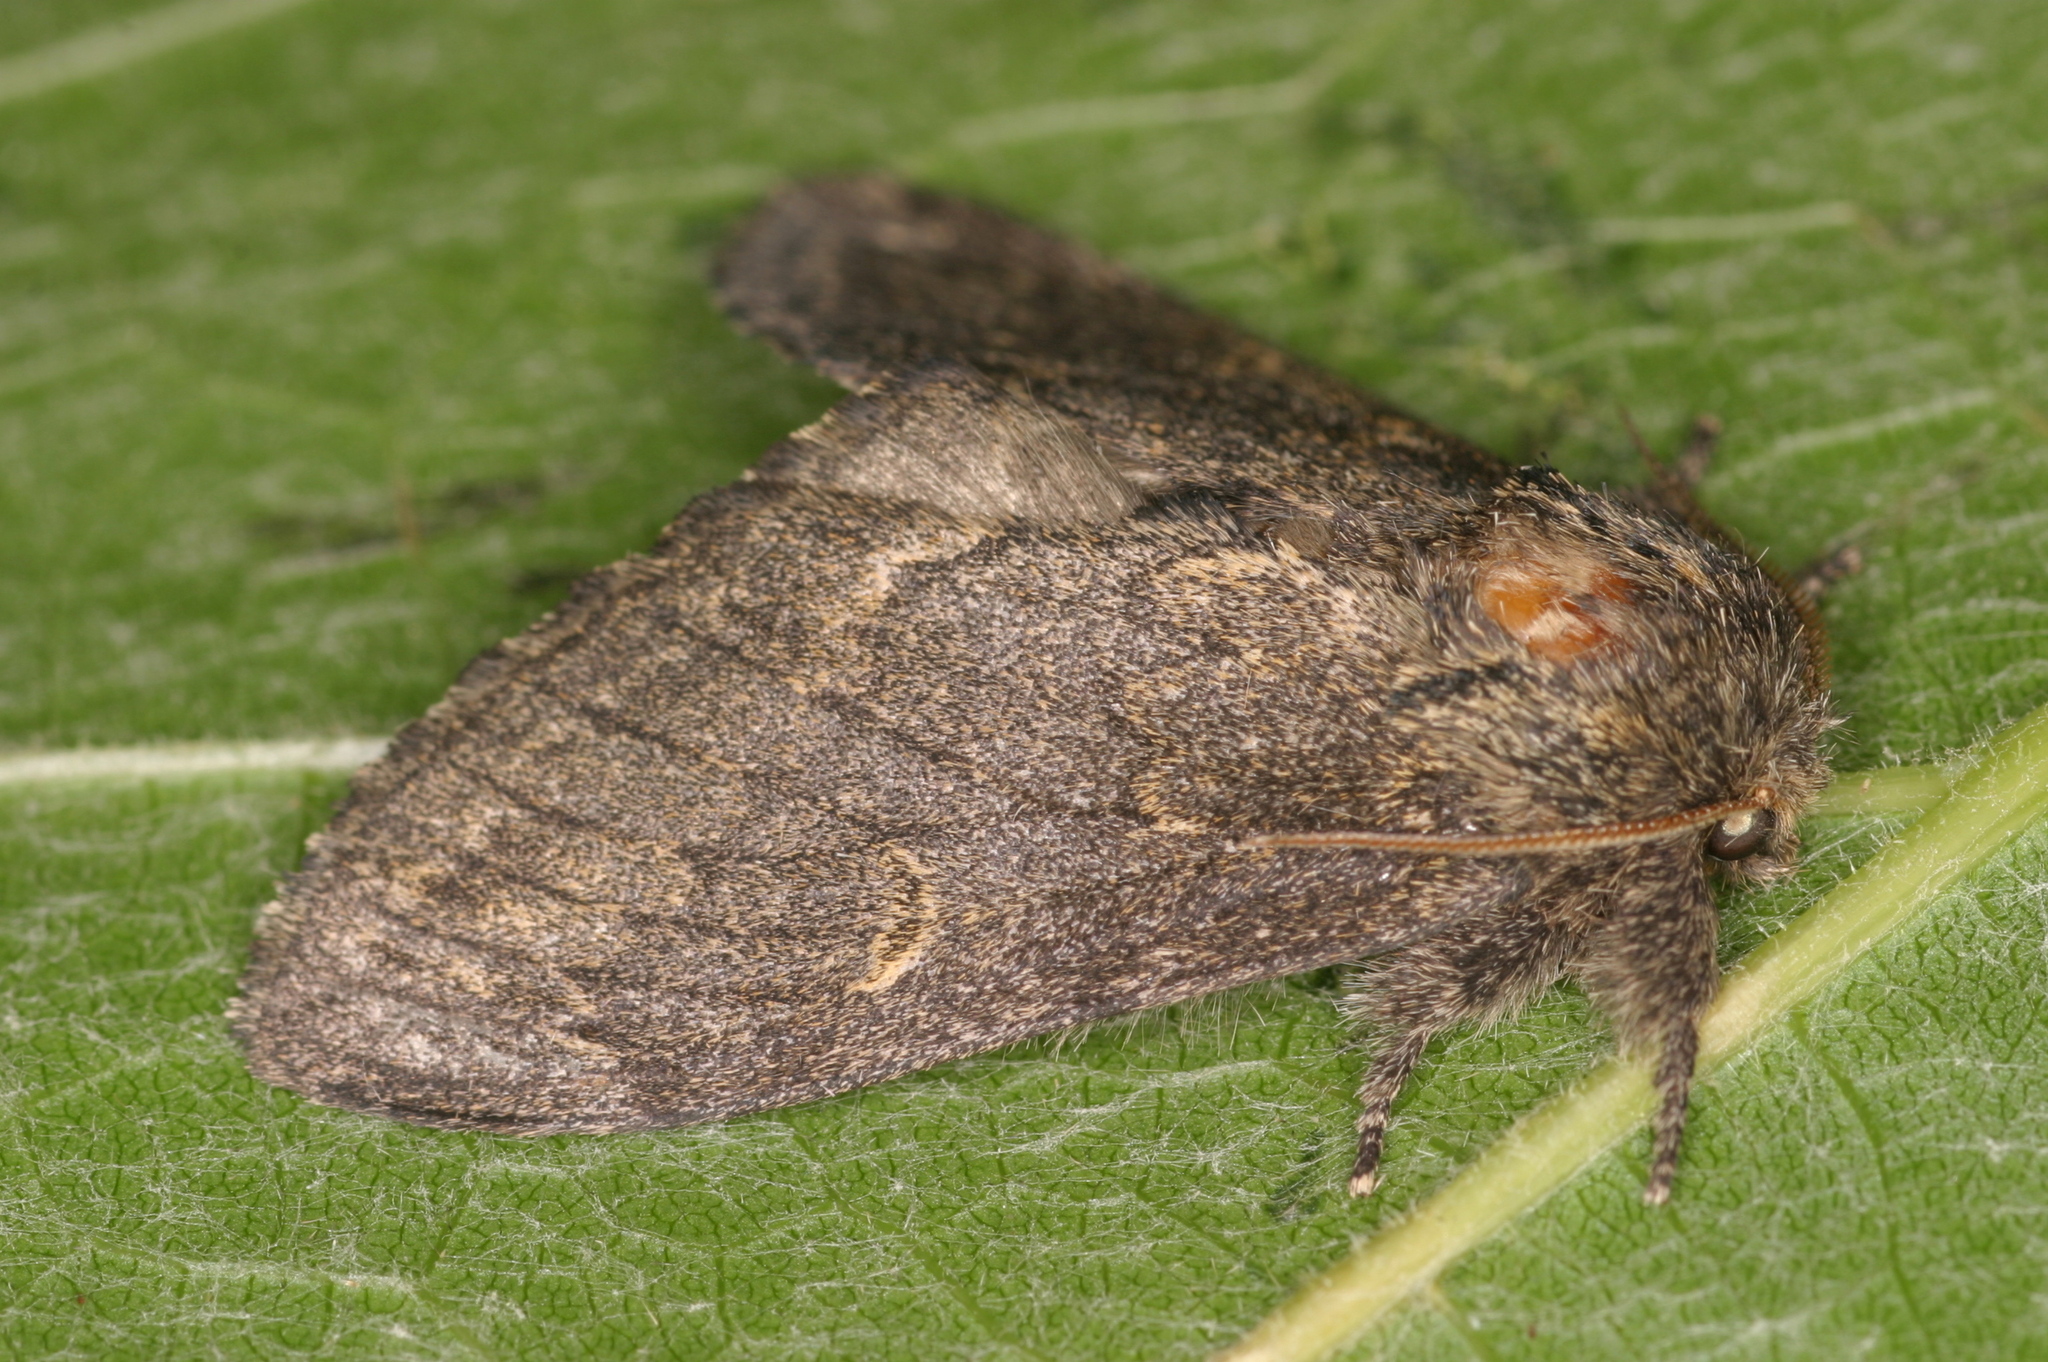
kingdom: Animalia
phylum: Arthropoda
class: Insecta
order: Lepidoptera
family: Notodontidae
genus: Notodonta
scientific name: Notodonta torva
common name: Large dark prominent
